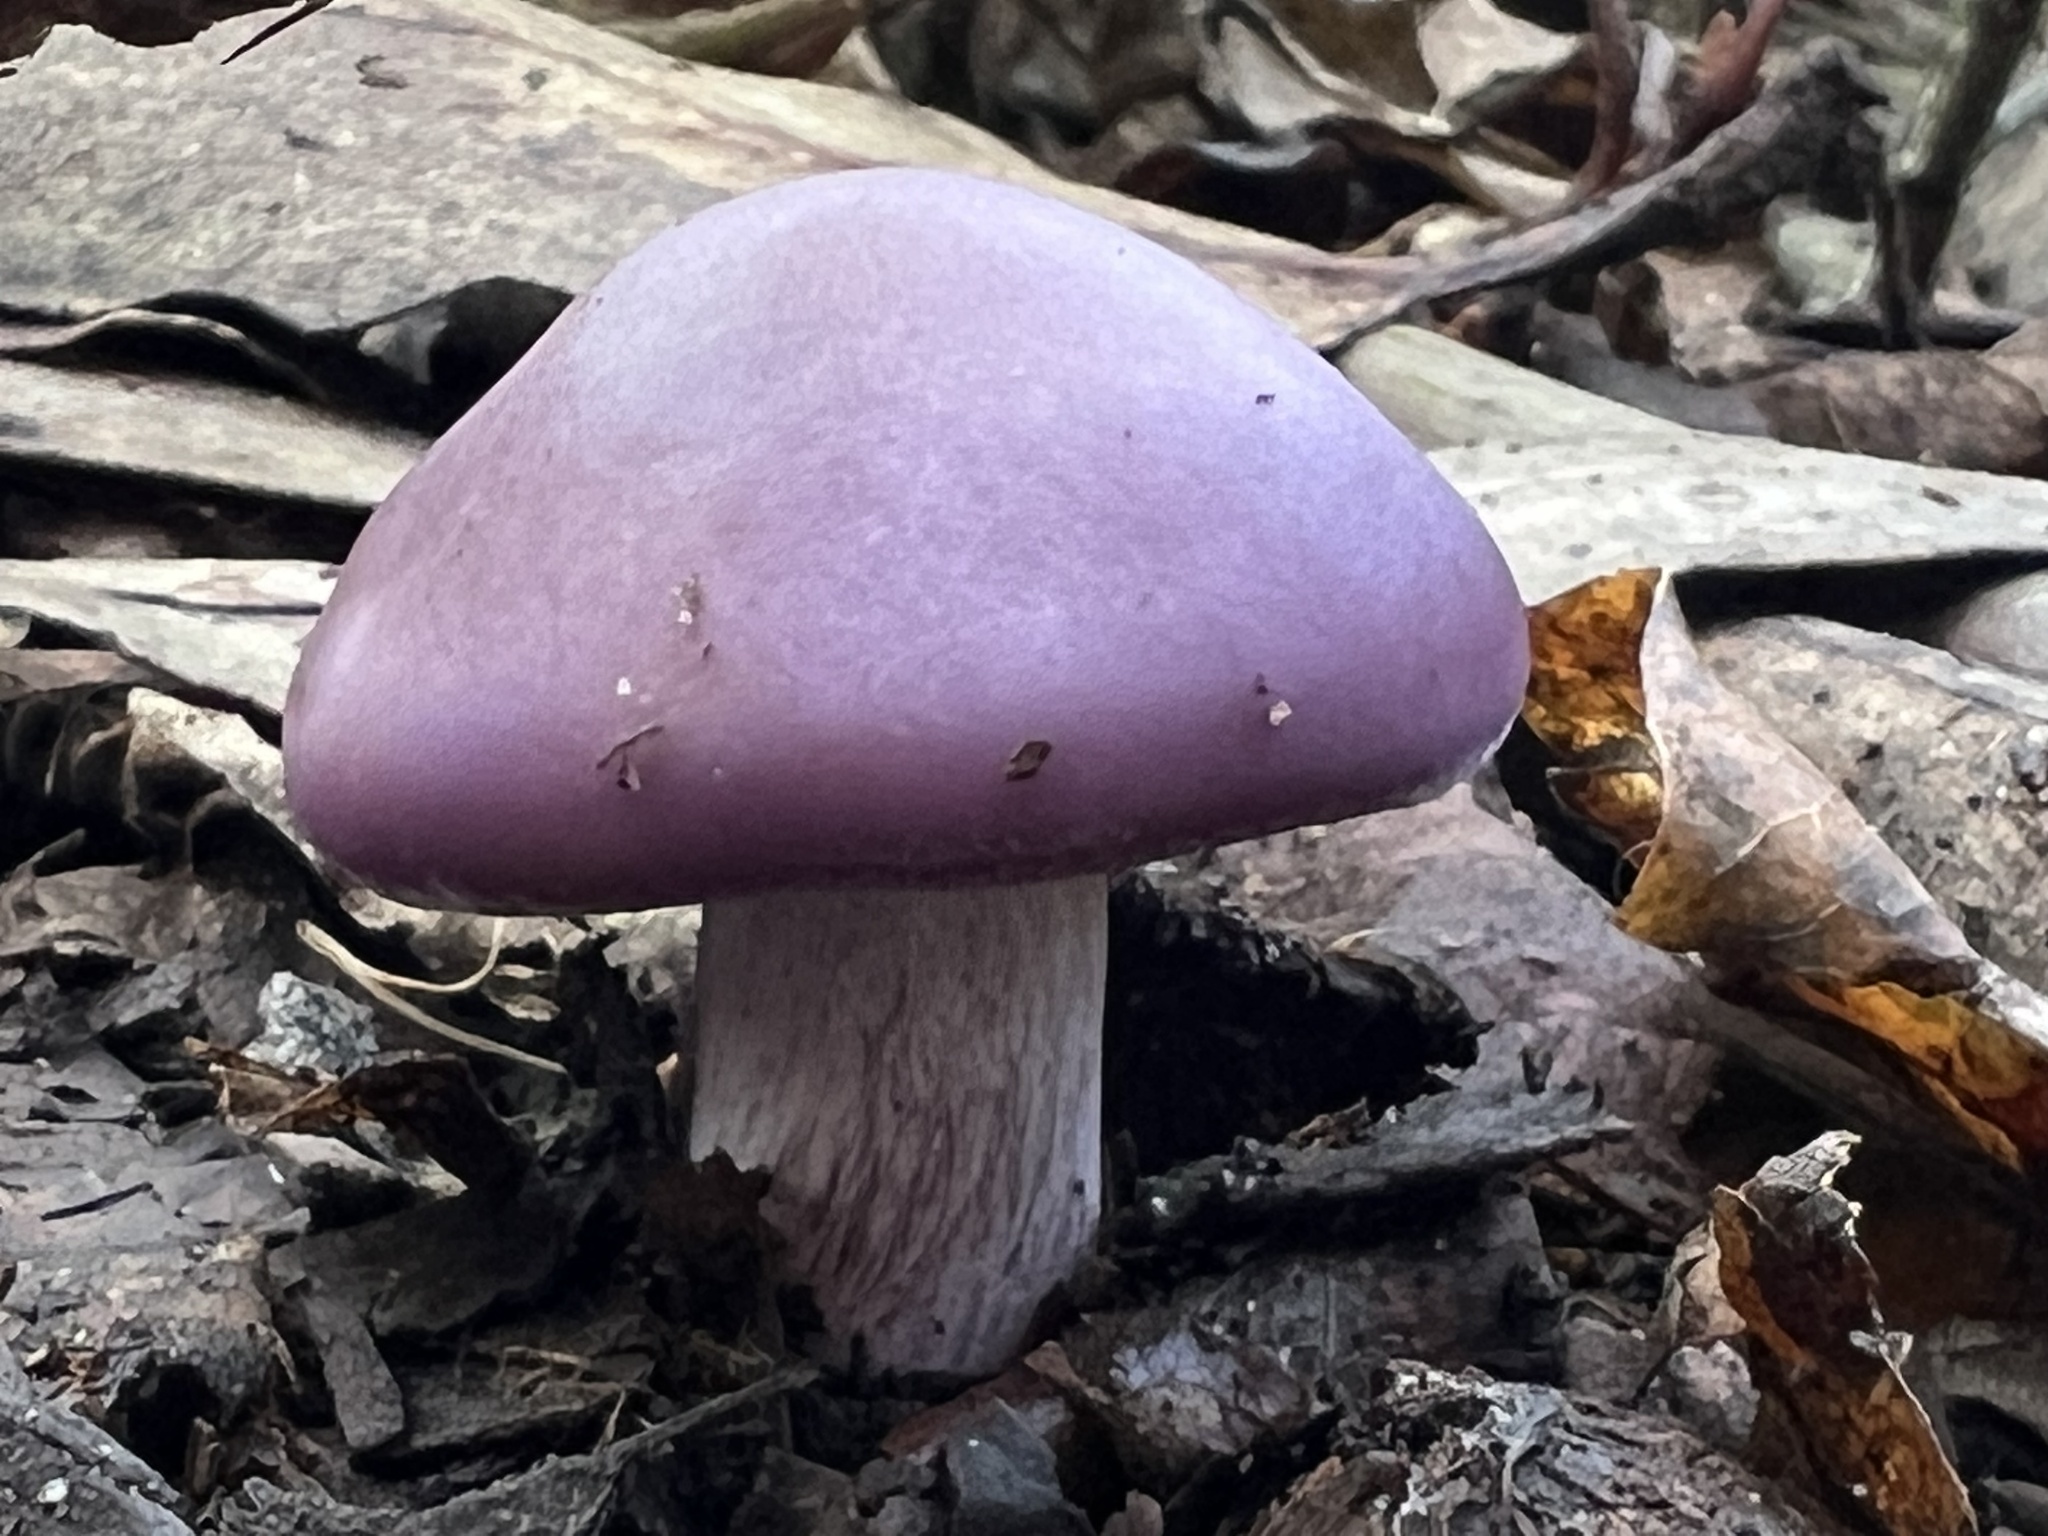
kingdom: Fungi
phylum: Basidiomycota
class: Agaricomycetes
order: Agaricales
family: Tricholomataceae
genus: Collybia
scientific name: Collybia
